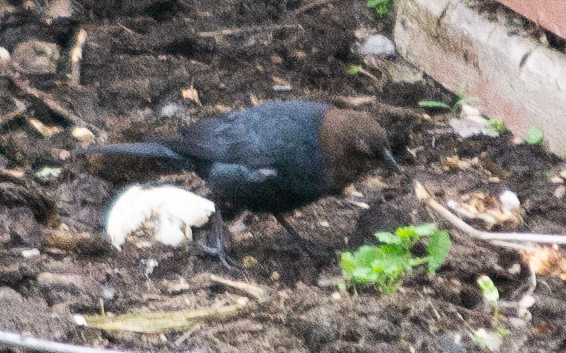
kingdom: Animalia
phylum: Chordata
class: Aves
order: Passeriformes
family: Icteridae
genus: Molothrus
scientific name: Molothrus ater
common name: Brown-headed cowbird
